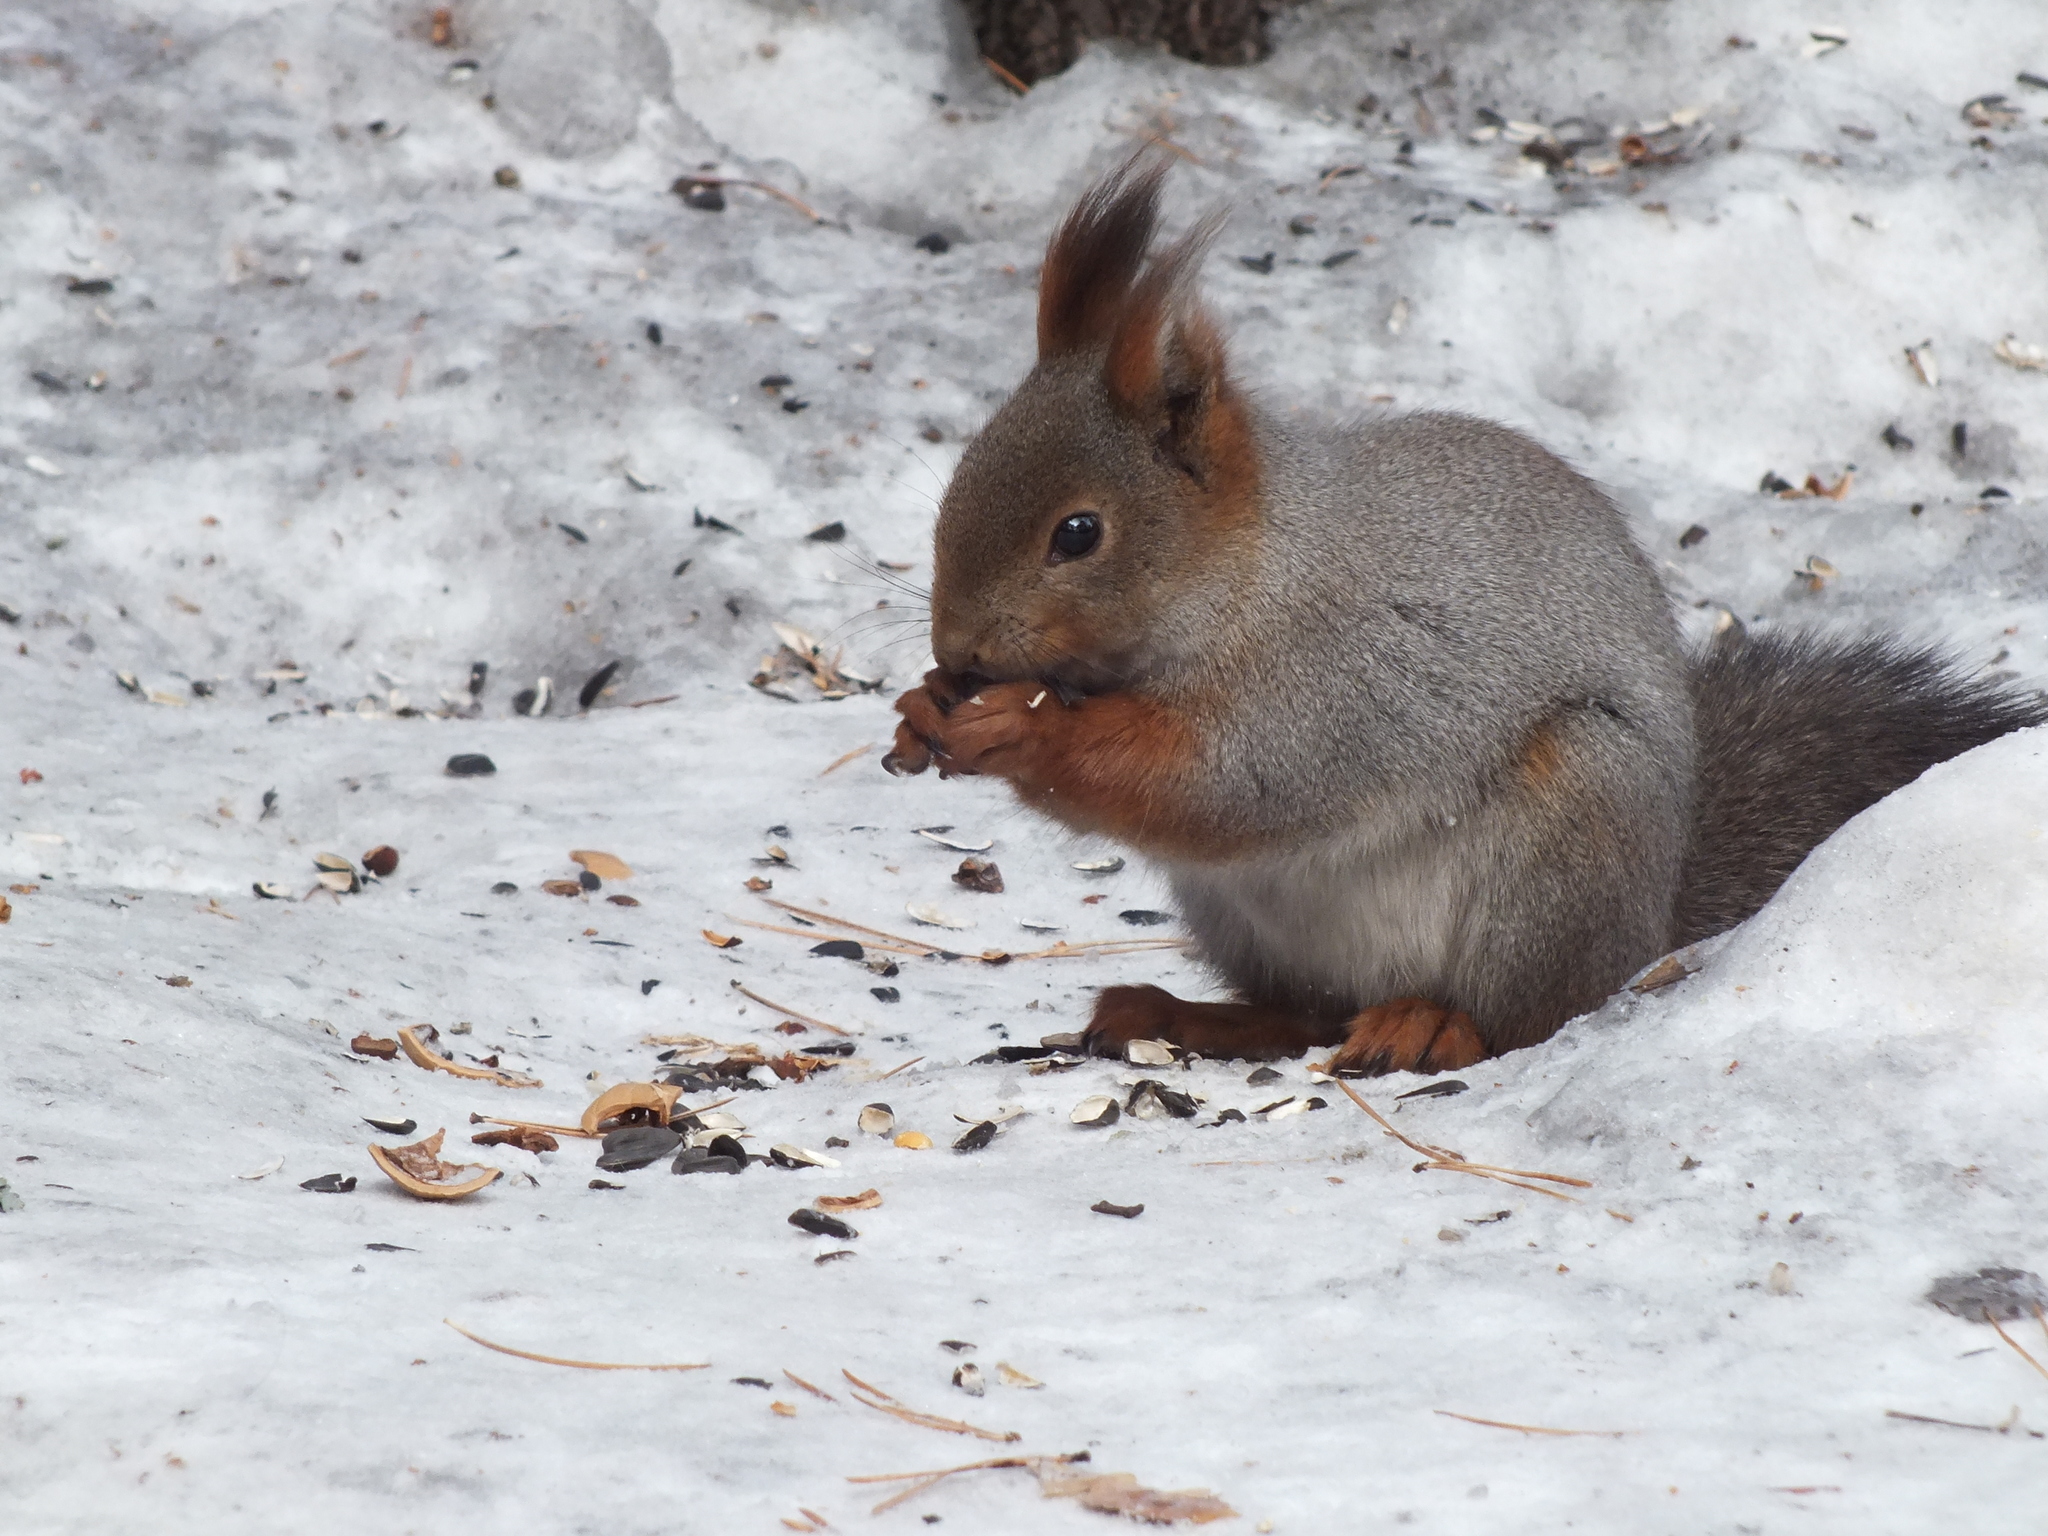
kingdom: Animalia
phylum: Chordata
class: Mammalia
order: Rodentia
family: Sciuridae
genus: Sciurus
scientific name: Sciurus vulgaris
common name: Eurasian red squirrel
